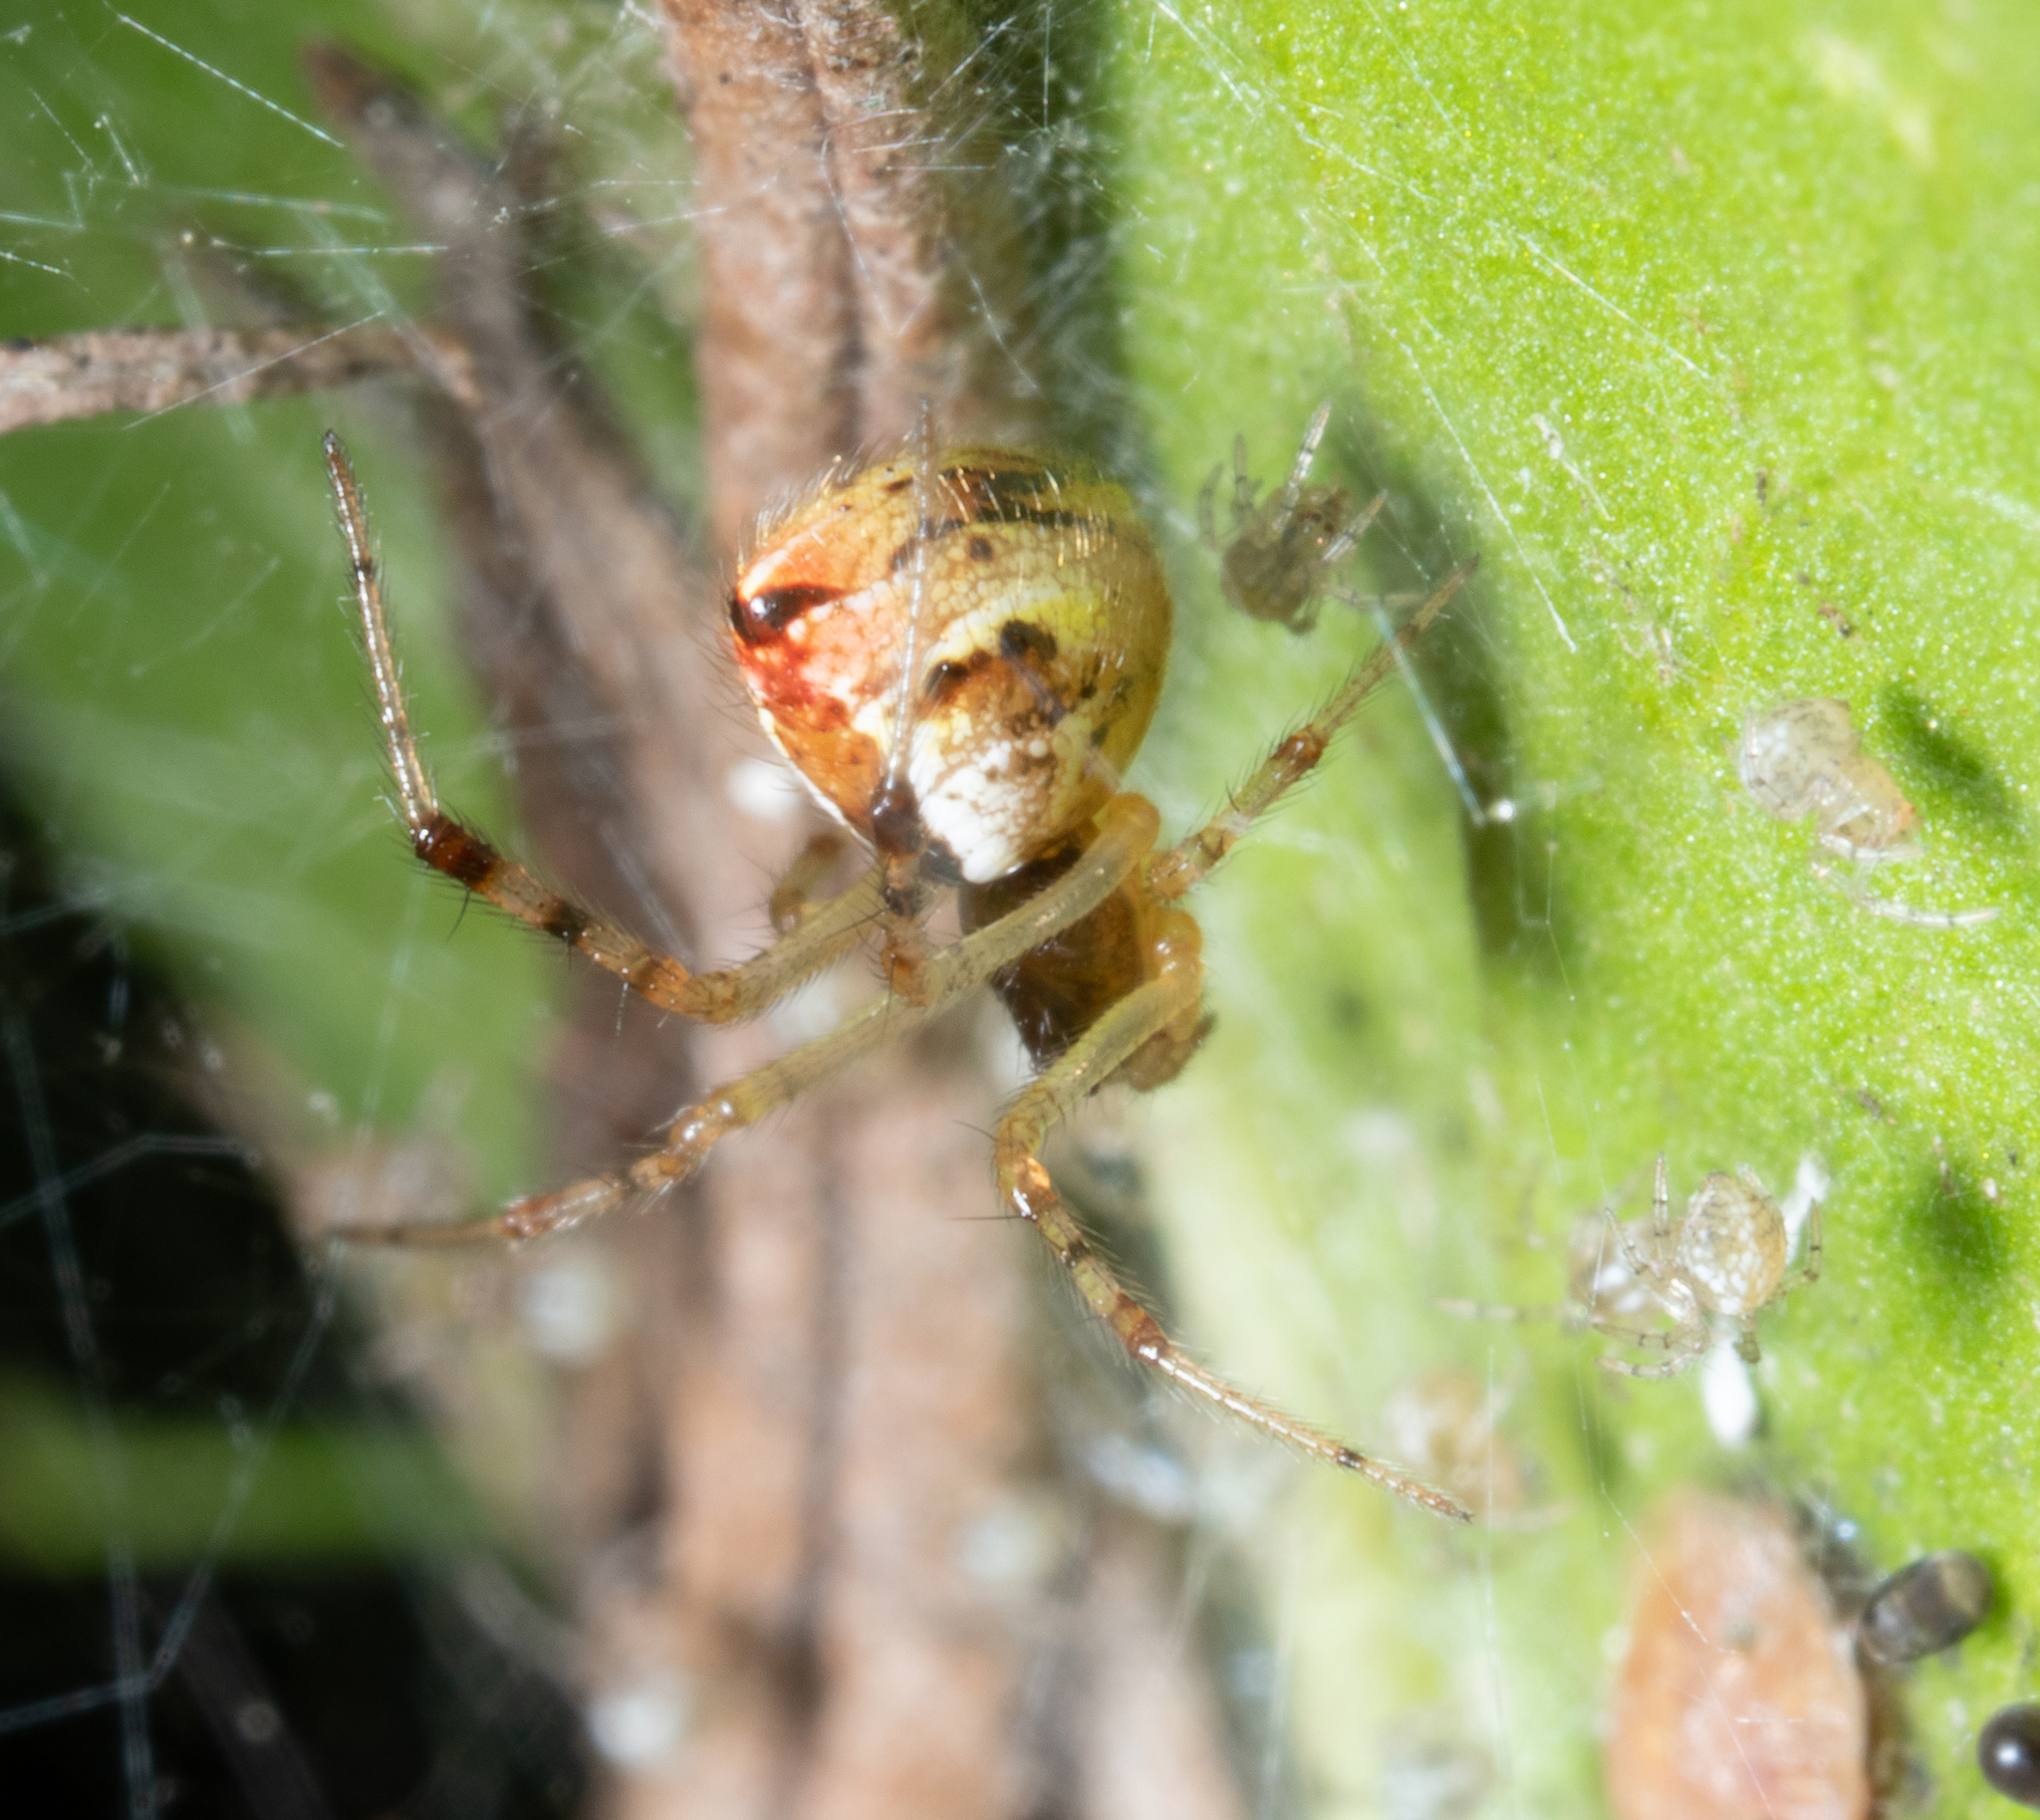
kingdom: Animalia
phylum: Arthropoda
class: Arachnida
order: Araneae
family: Theridiidae
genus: Theridion
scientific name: Theridion pyramidale
